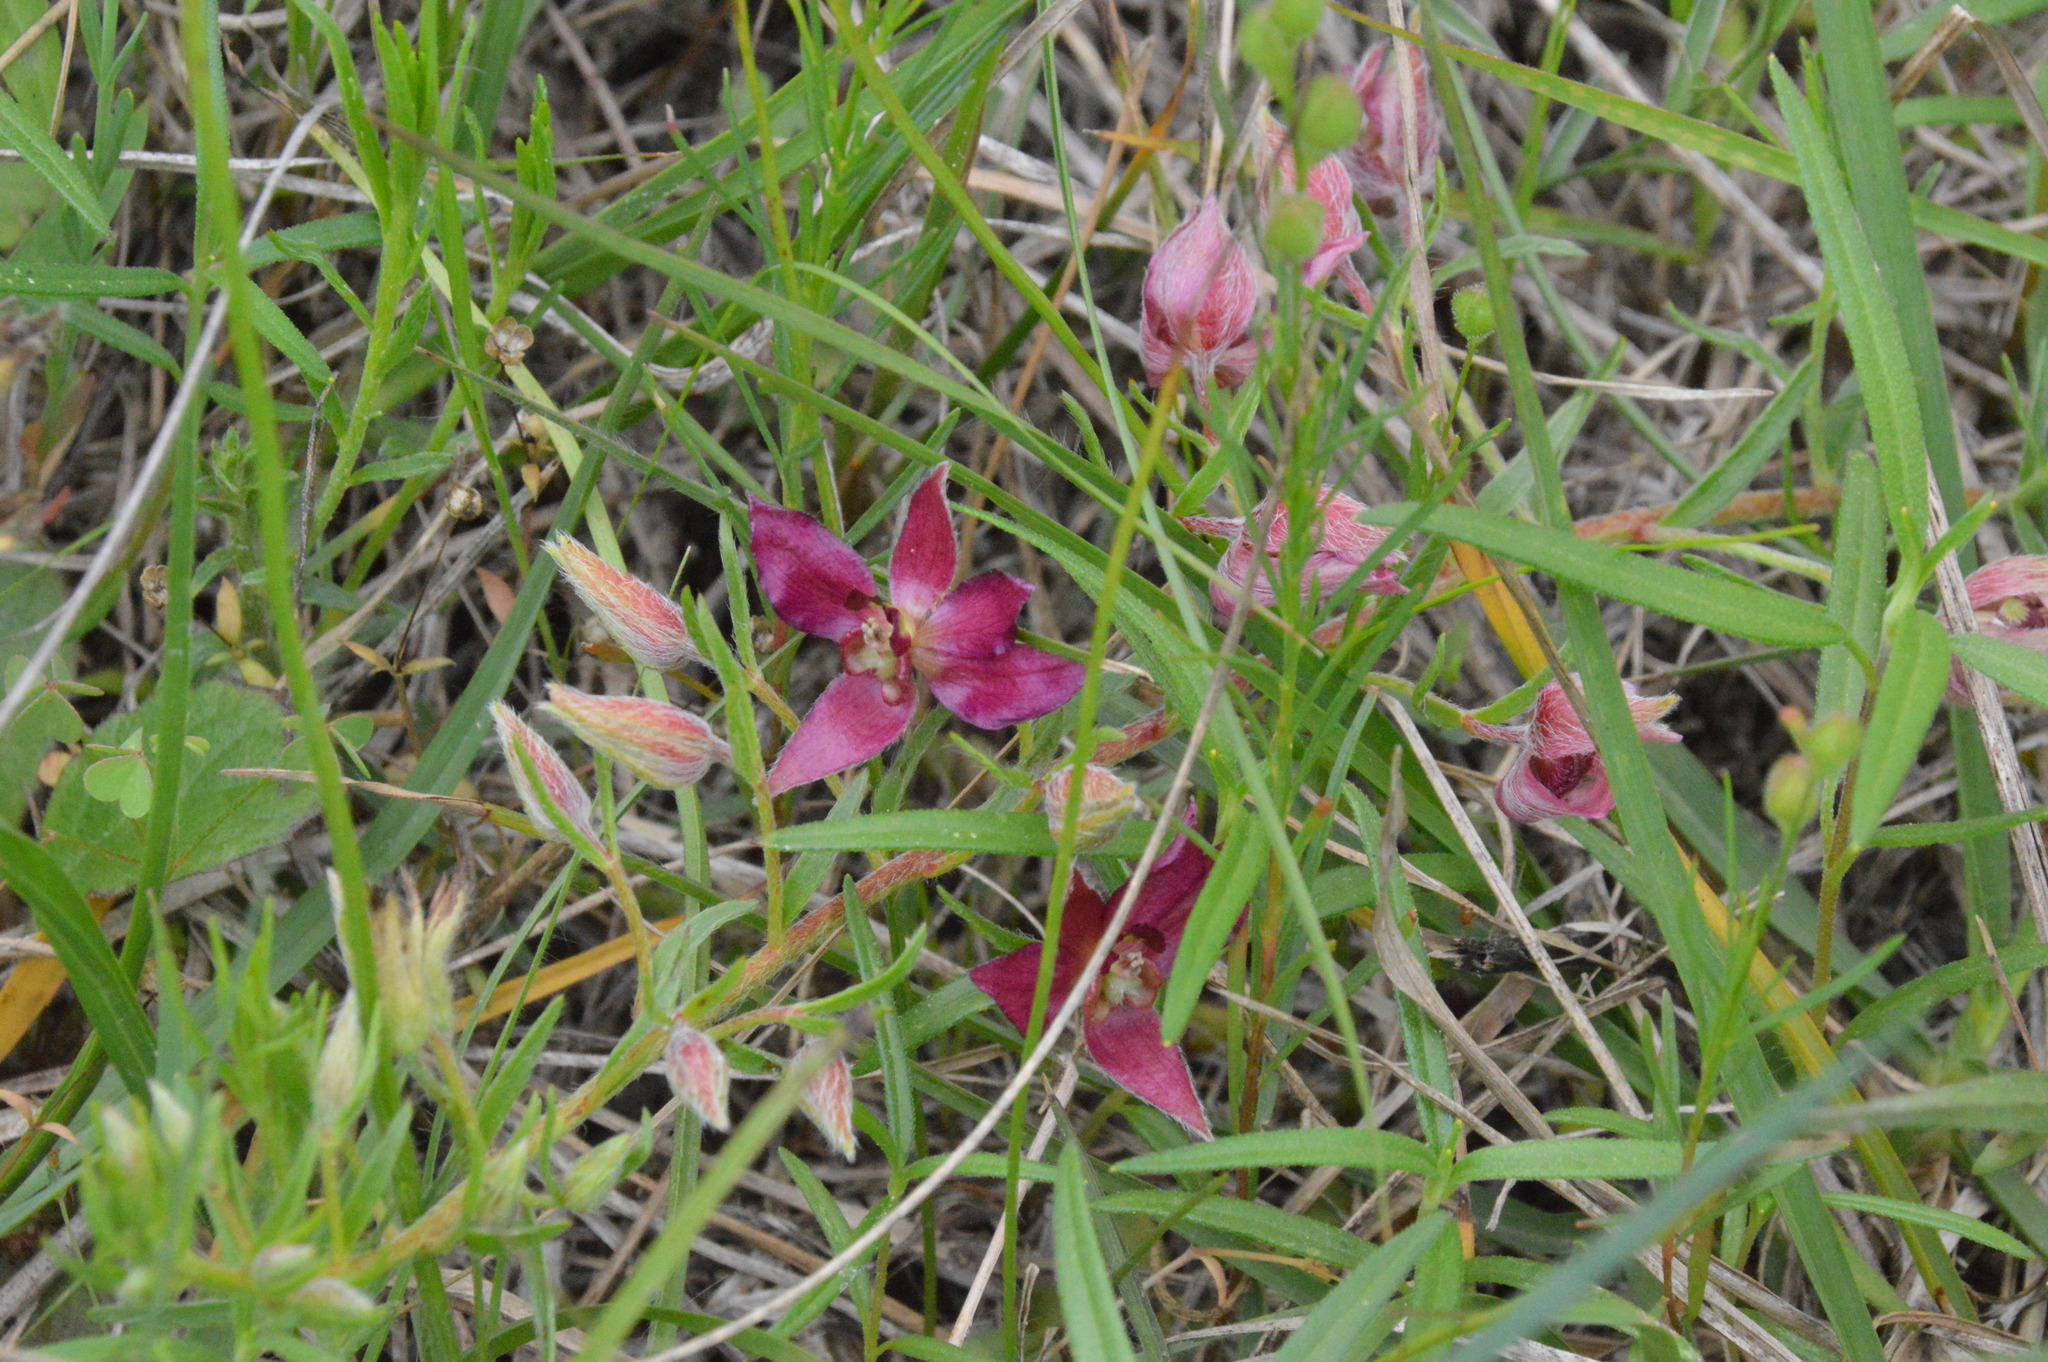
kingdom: Plantae
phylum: Tracheophyta
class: Magnoliopsida
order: Zygophyllales
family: Krameriaceae
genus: Krameria
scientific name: Krameria lanceolata
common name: Ratany
